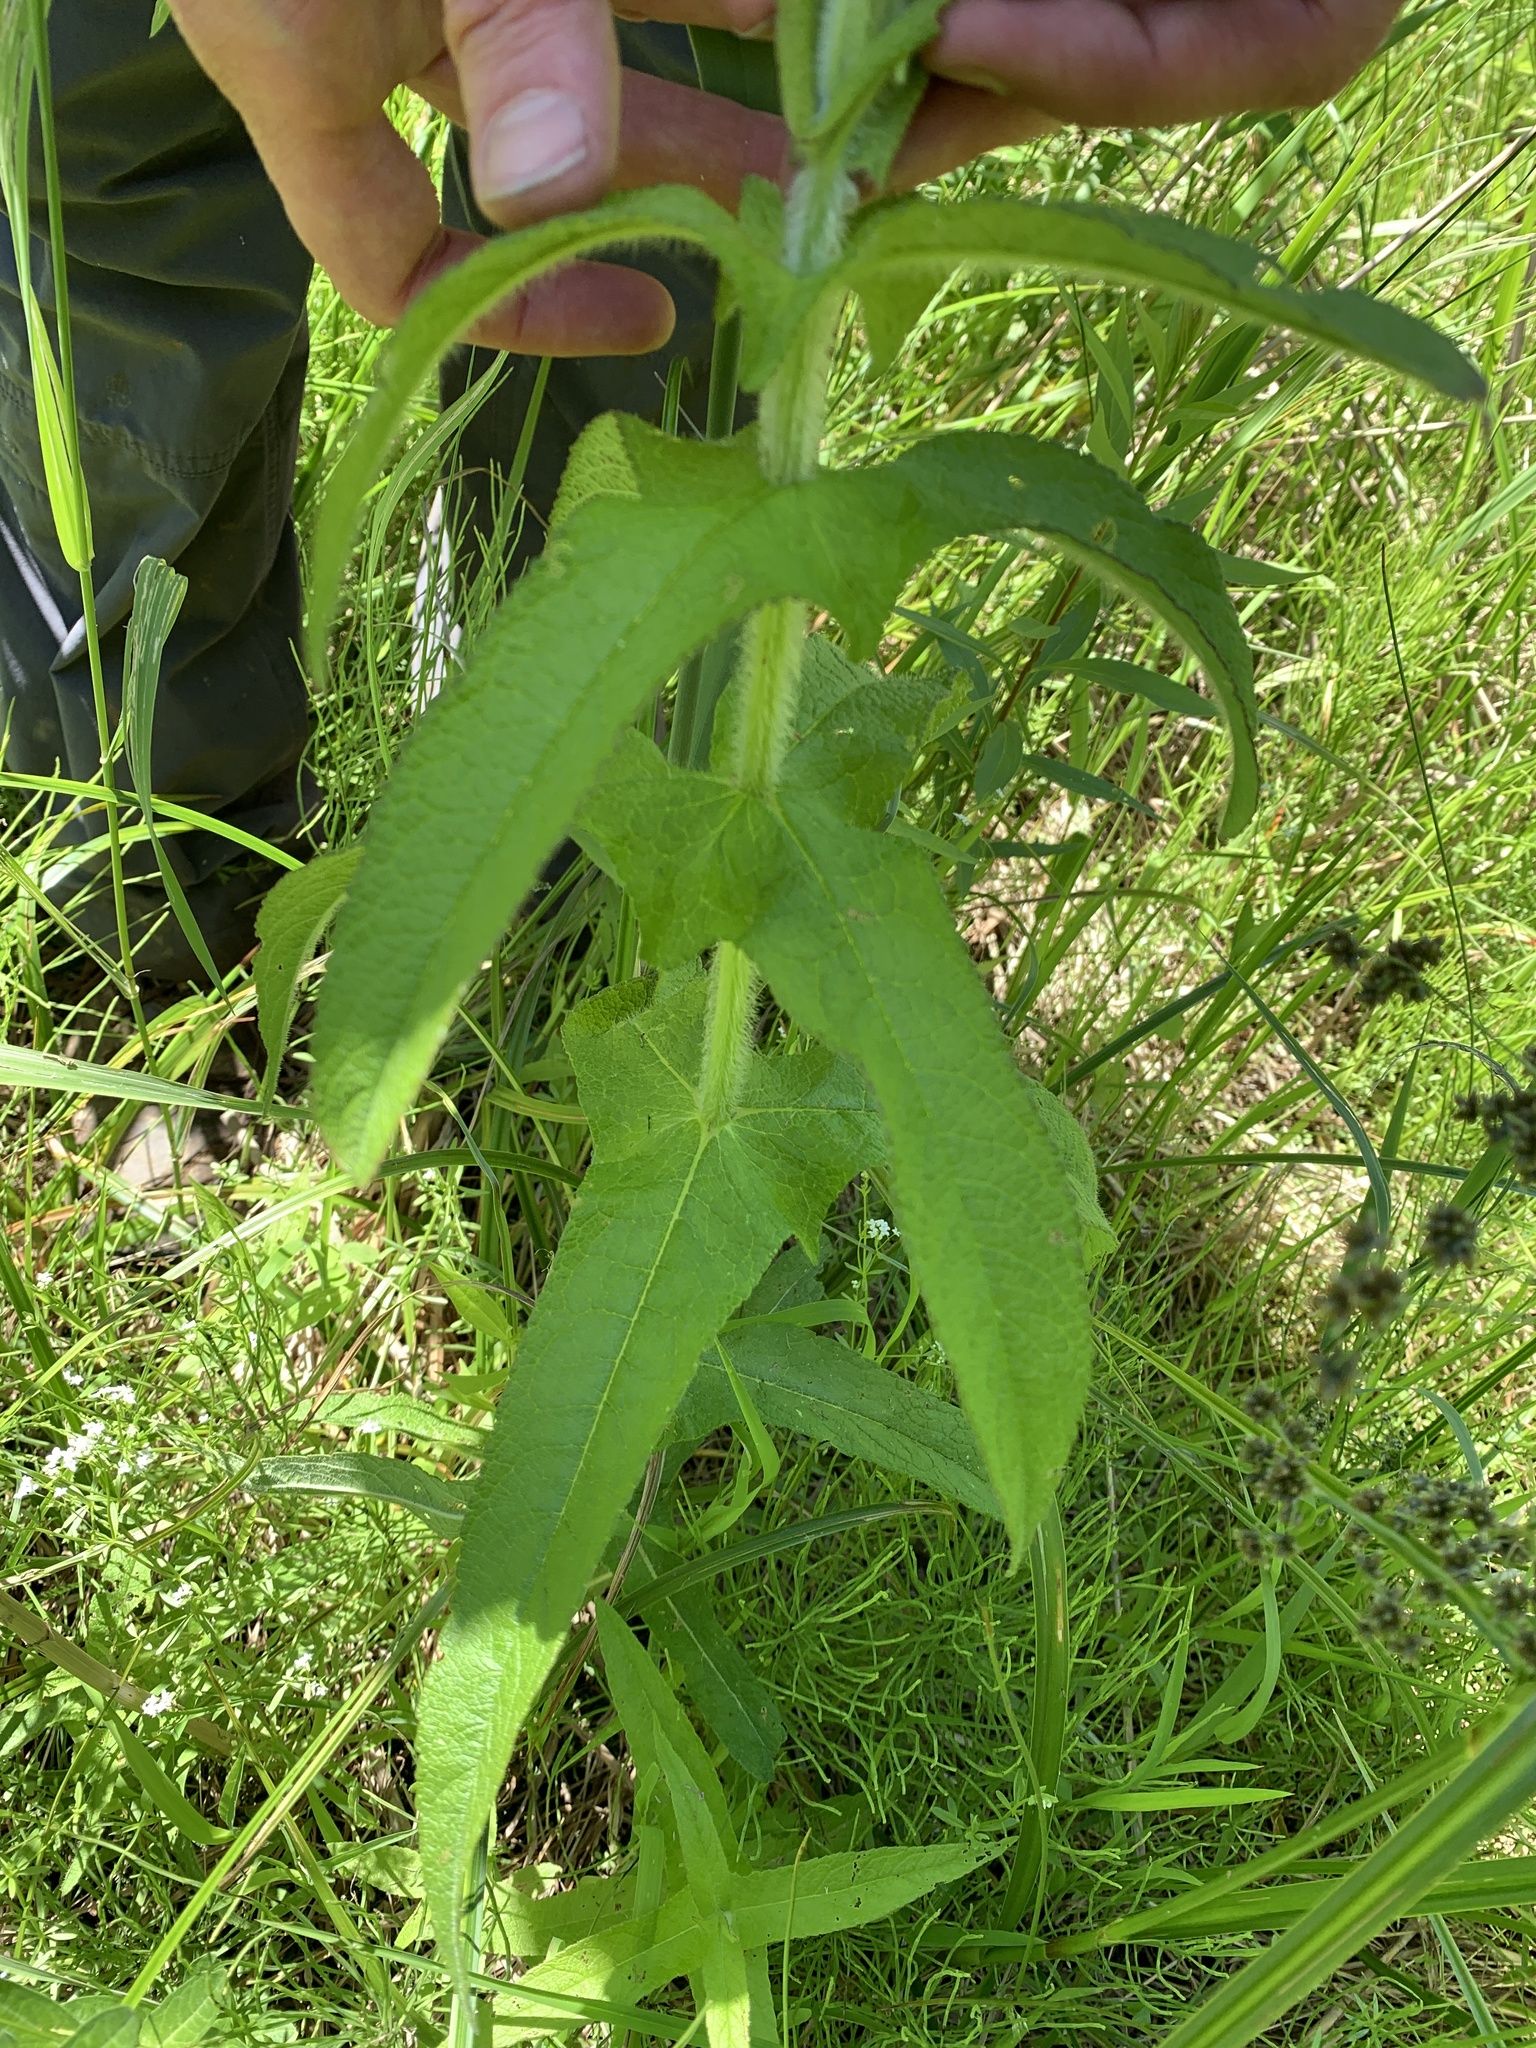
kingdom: Plantae
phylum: Tracheophyta
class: Magnoliopsida
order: Asterales
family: Asteraceae
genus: Eupatorium
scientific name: Eupatorium perfoliatum
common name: Boneset
